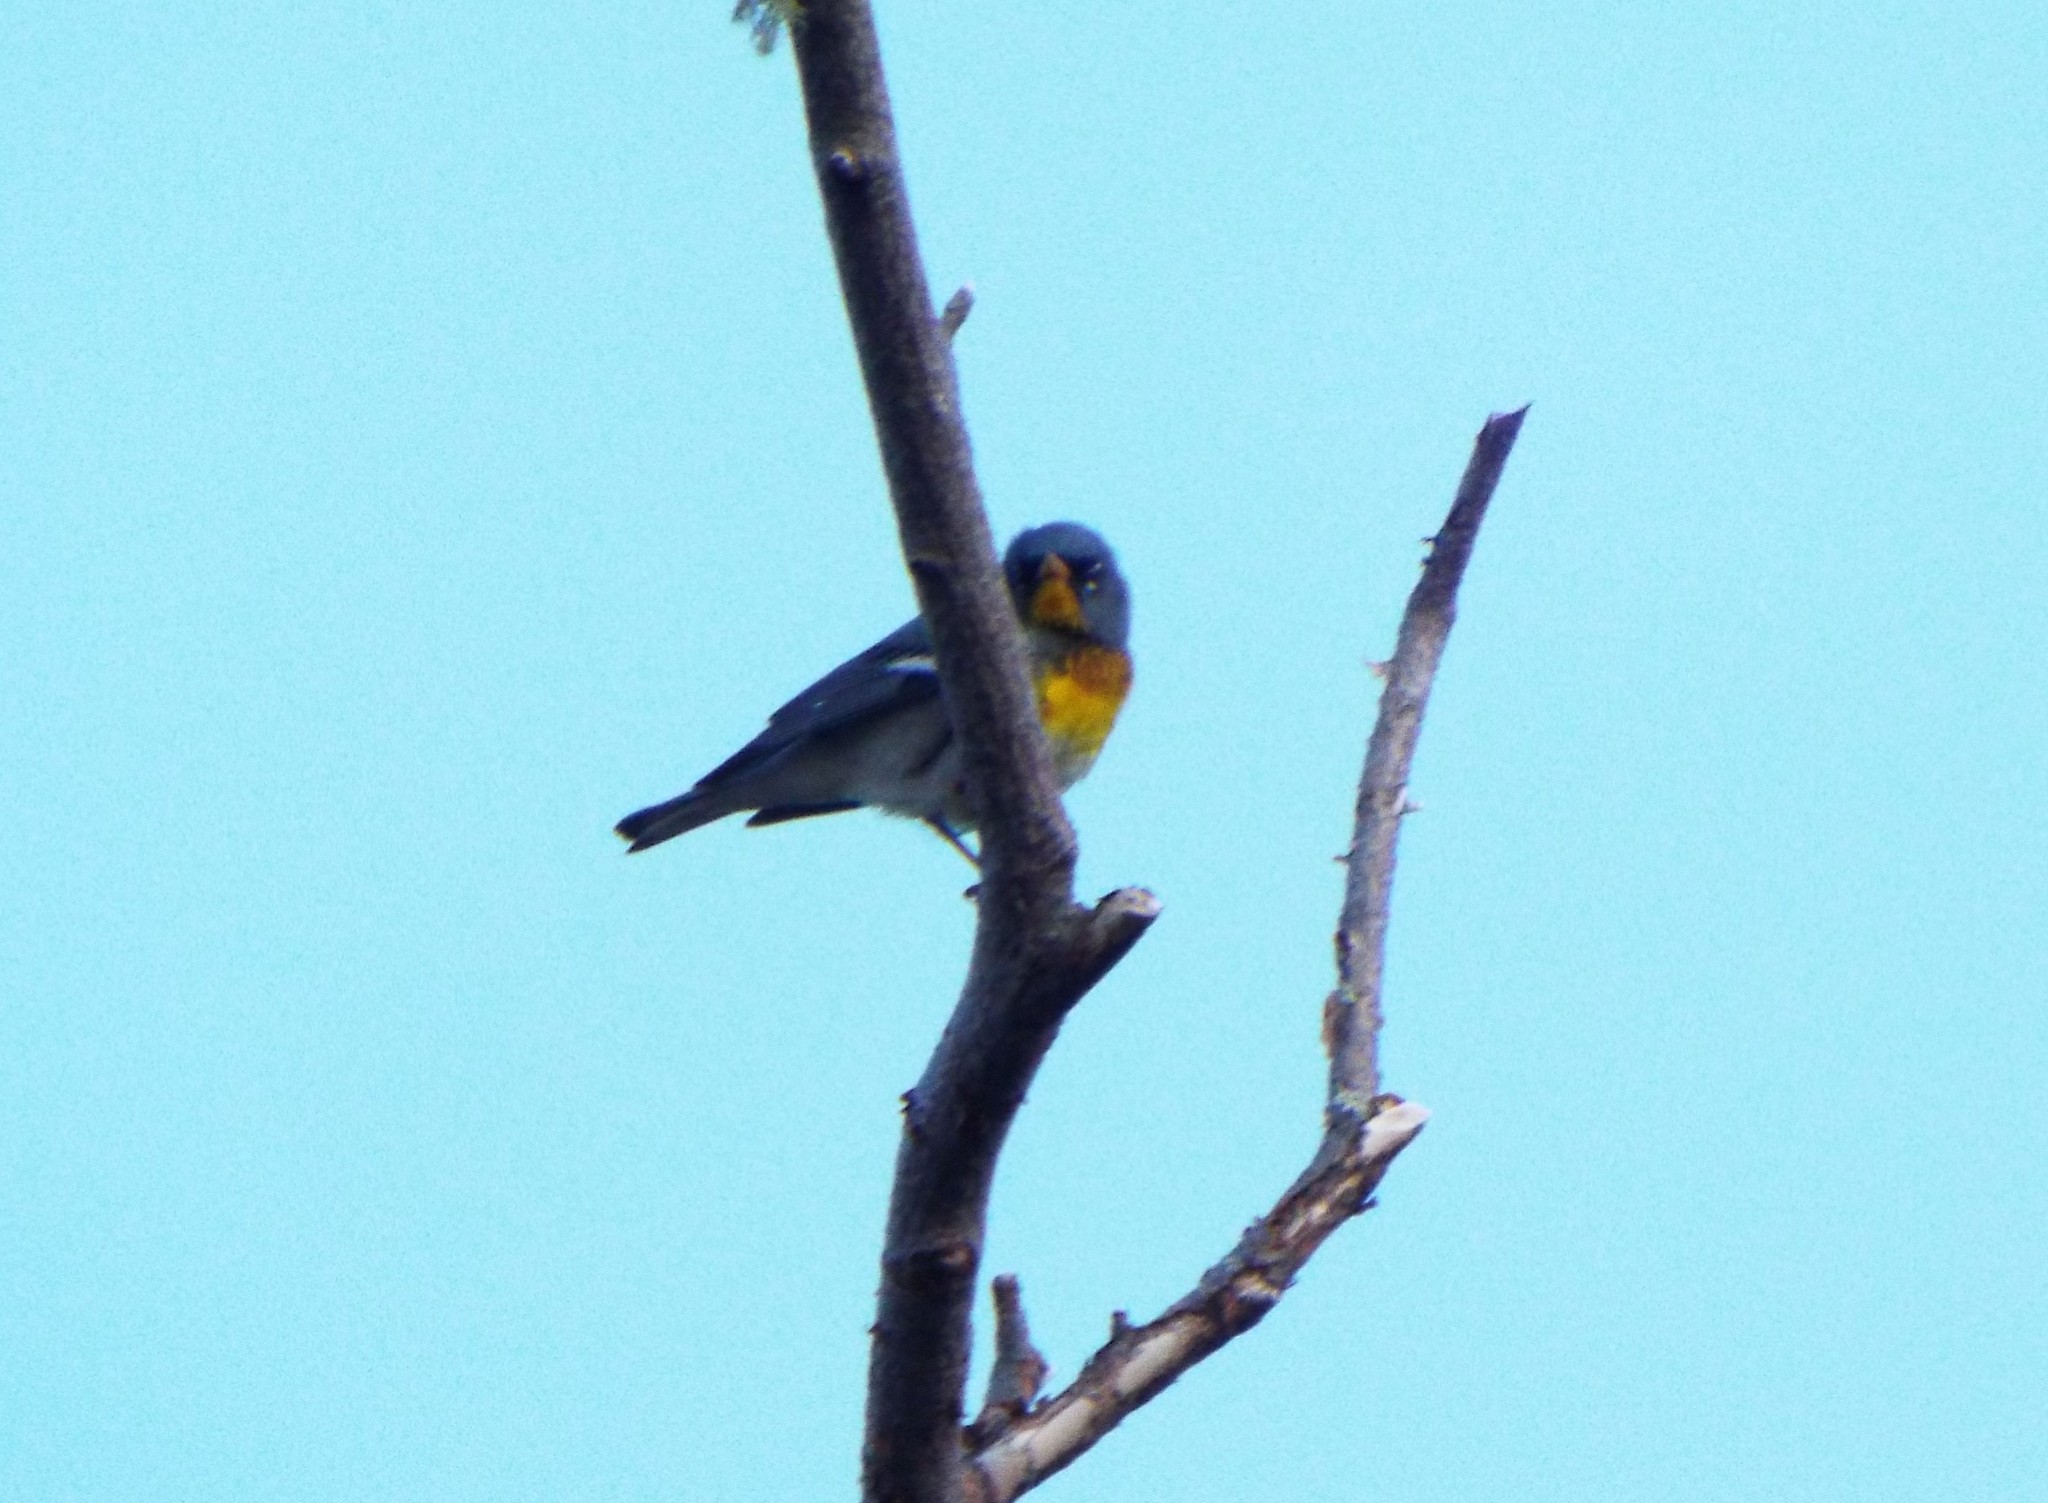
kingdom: Animalia
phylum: Chordata
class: Aves
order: Passeriformes
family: Parulidae
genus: Setophaga
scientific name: Setophaga americana
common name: Northern parula
